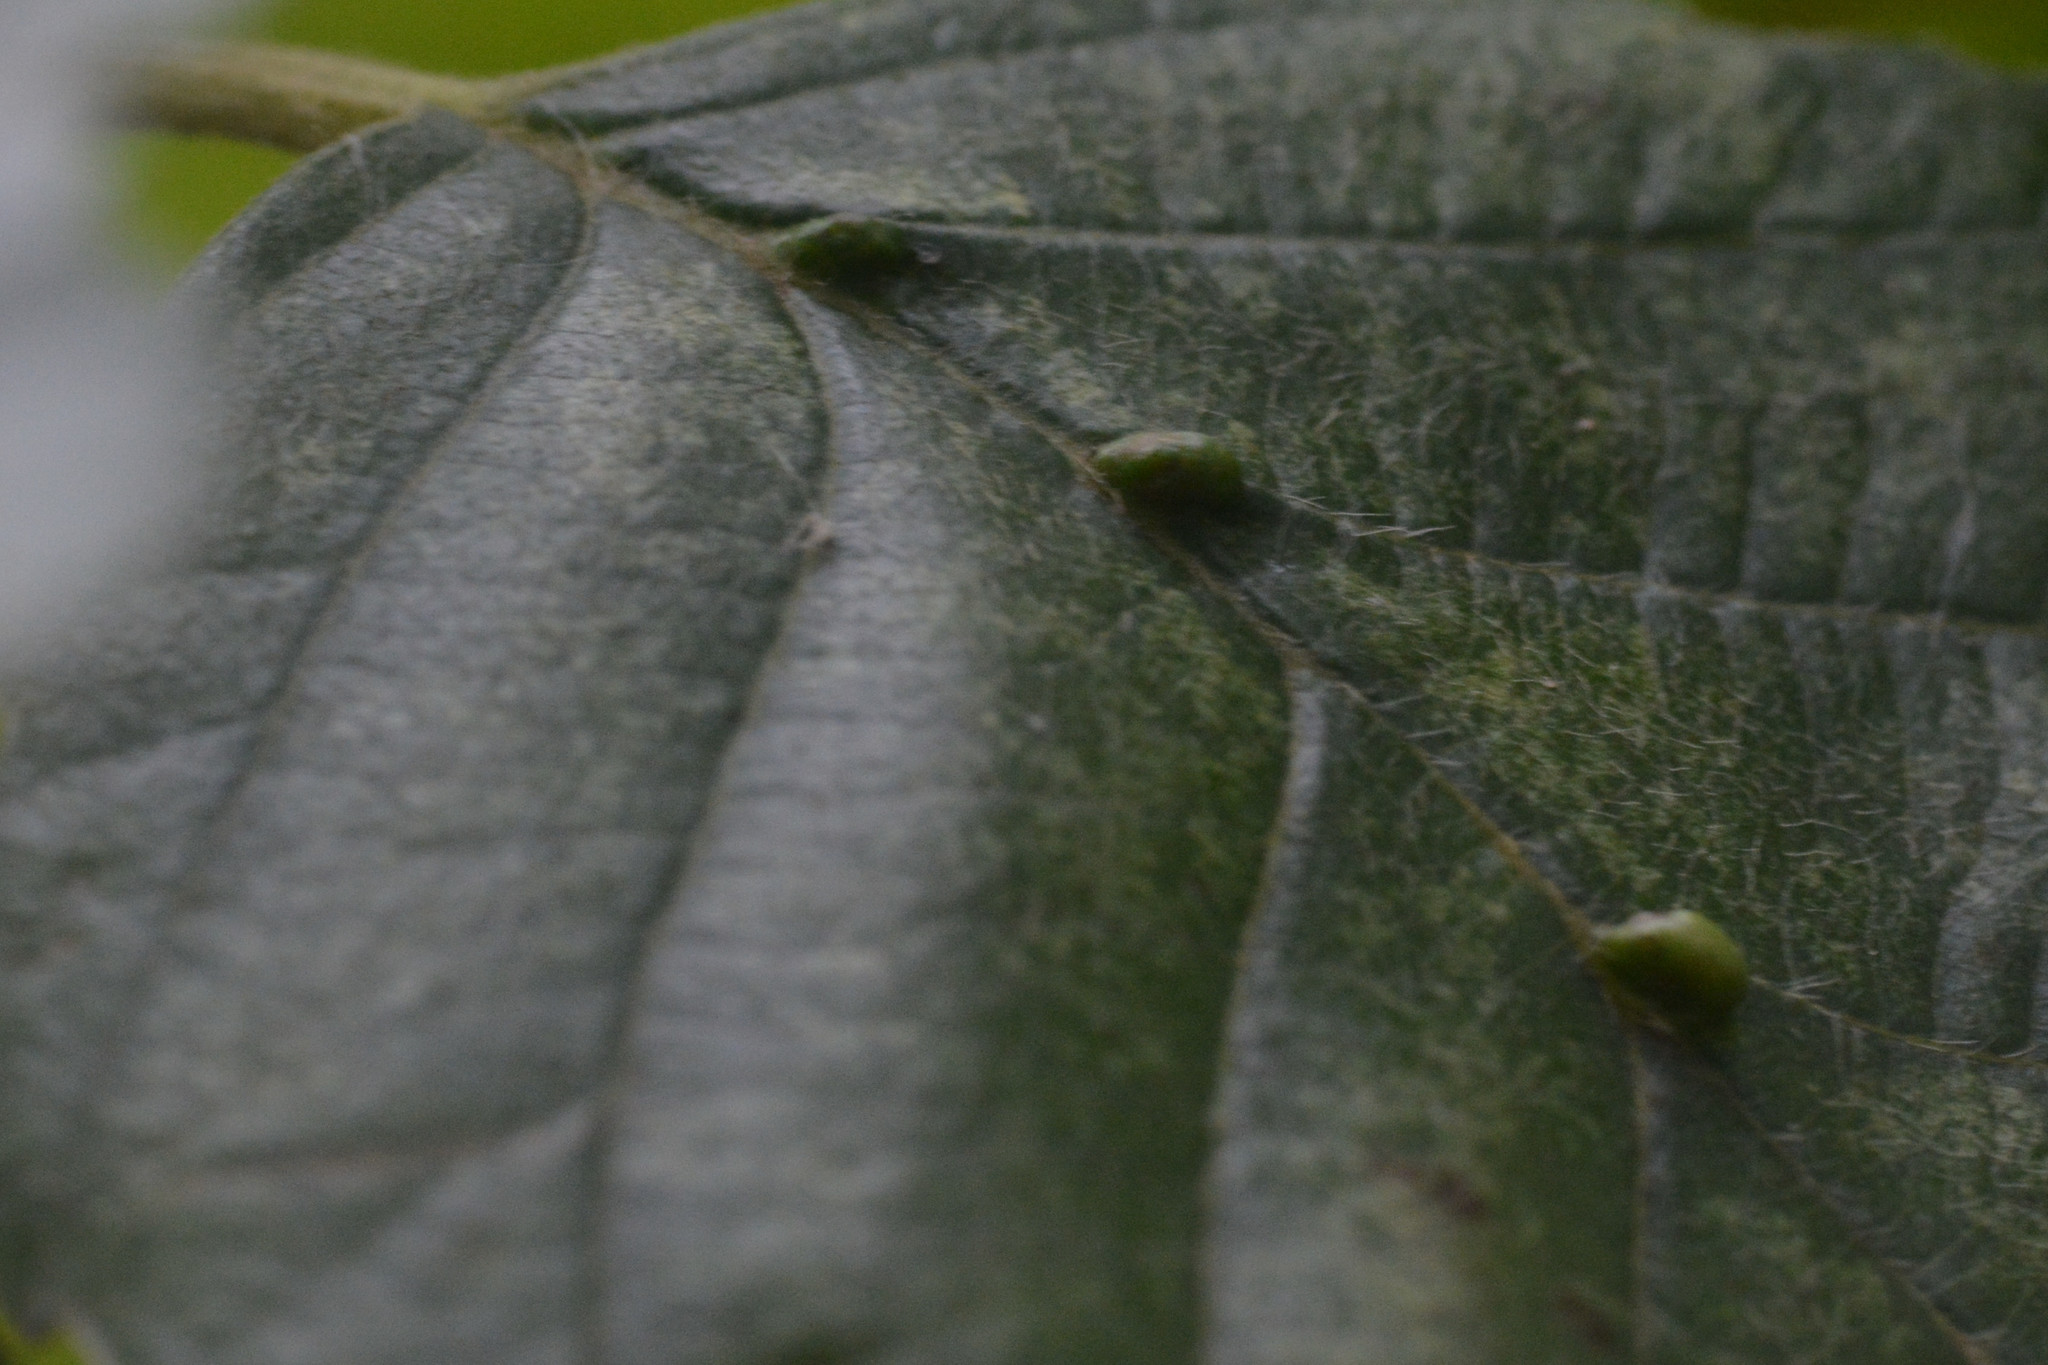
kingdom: Animalia
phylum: Arthropoda
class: Arachnida
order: Trombidiformes
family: Eriophyidae
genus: Aceria
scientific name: Aceria nalepai
